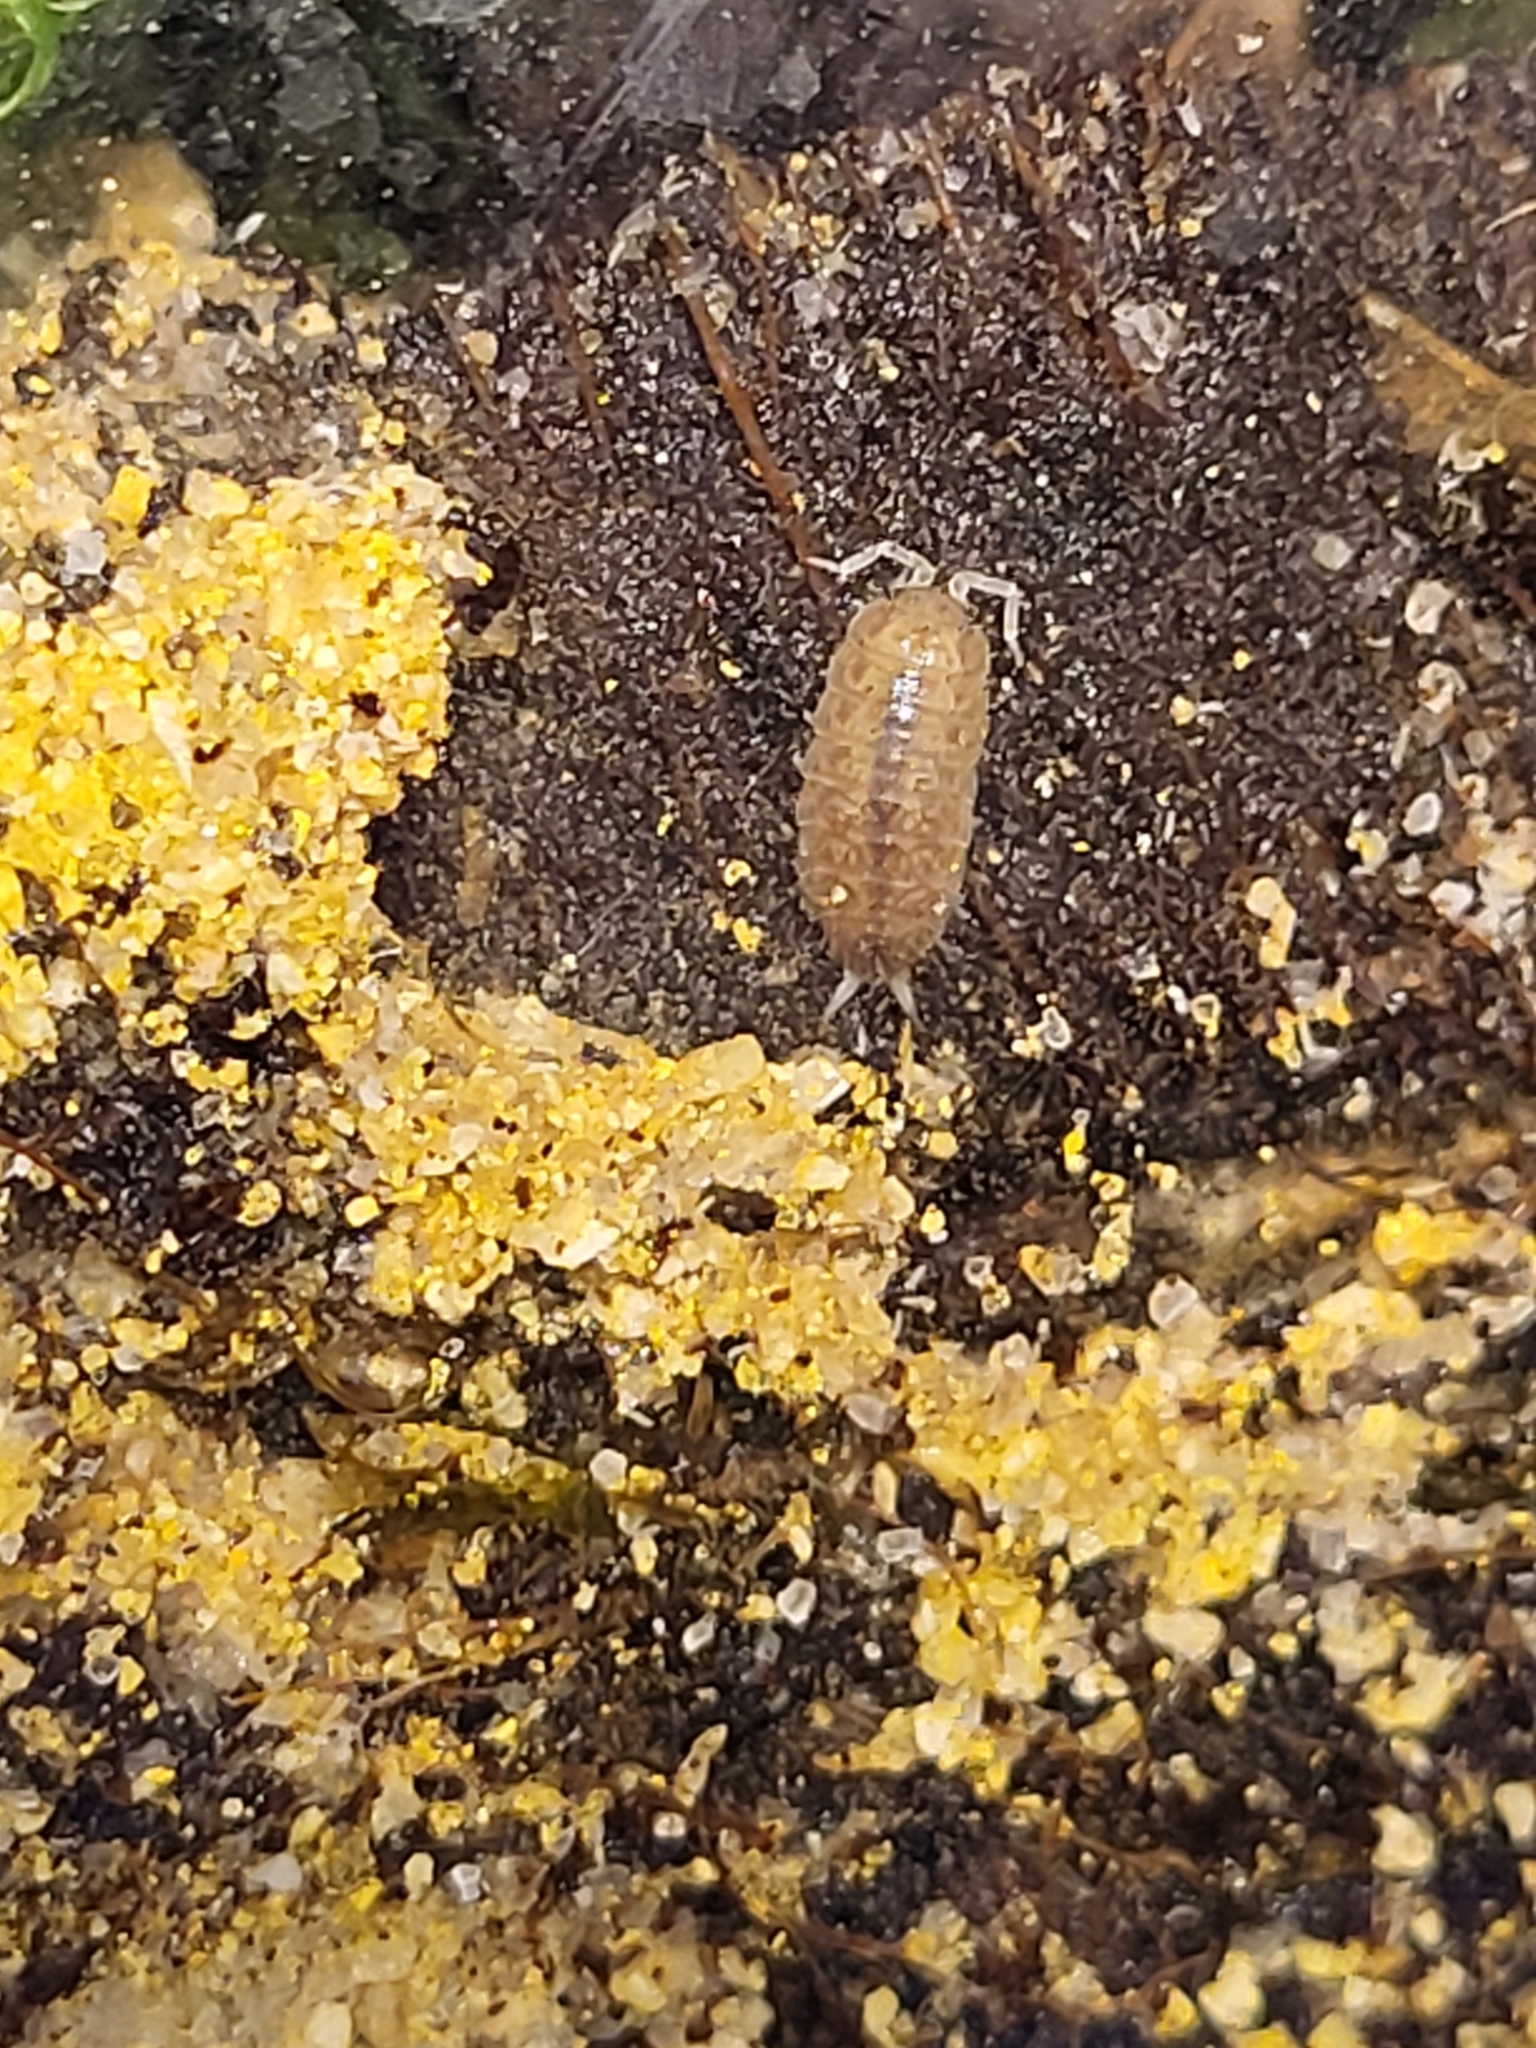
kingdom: Animalia
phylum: Arthropoda
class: Malacostraca
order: Isopoda
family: Platyarthridae
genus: Niambia
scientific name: Niambia capensis
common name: Isopod
